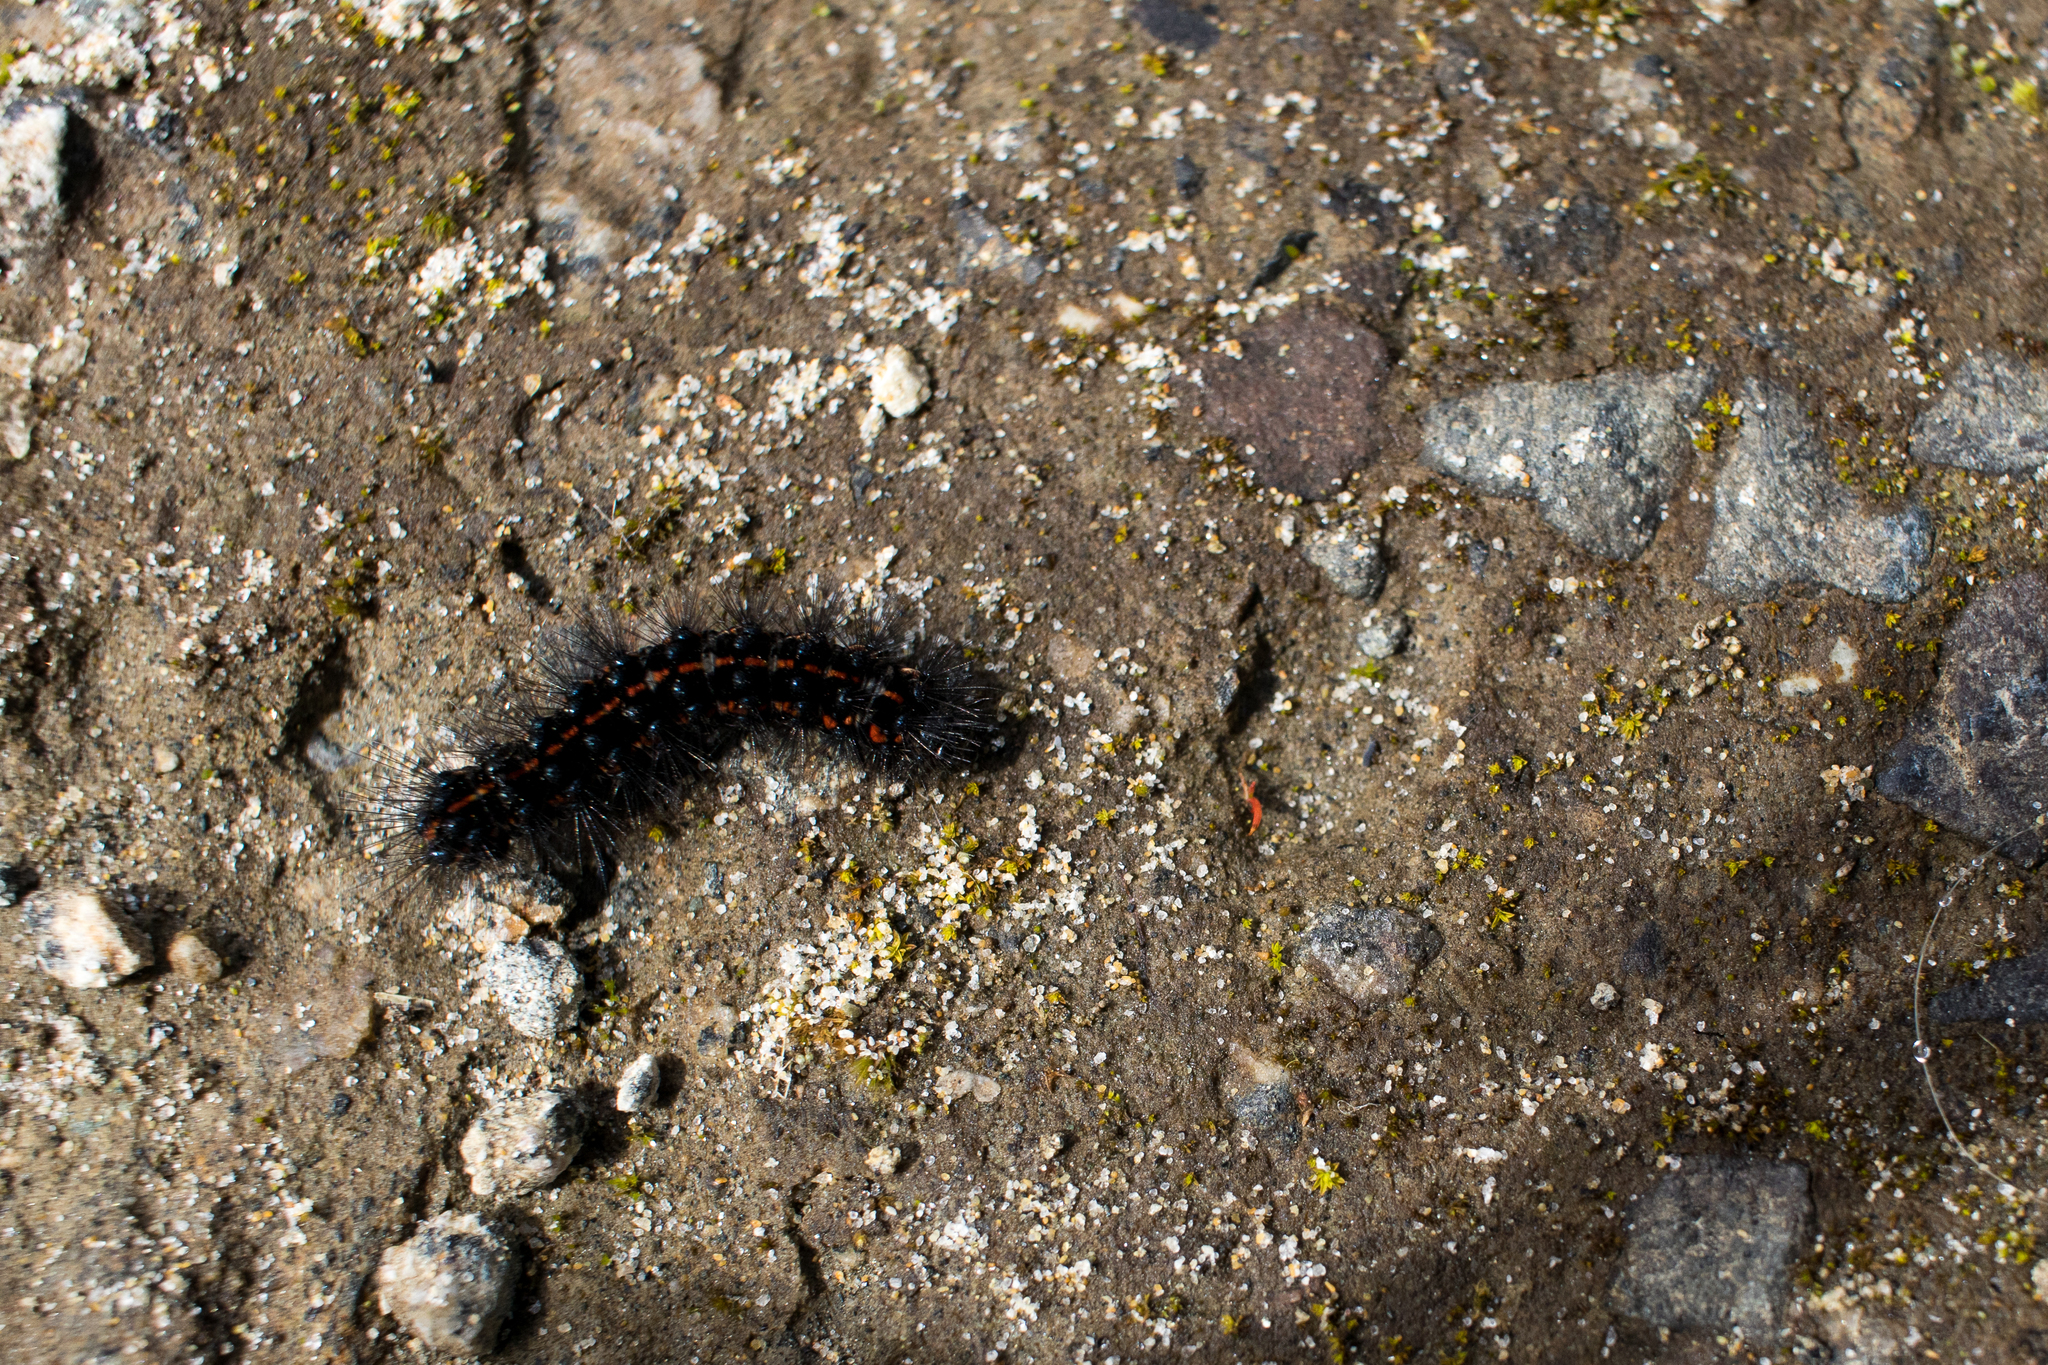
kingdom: Animalia
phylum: Arthropoda
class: Insecta
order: Lepidoptera
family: Erebidae
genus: Nyctemera
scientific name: Nyctemera annulatum
